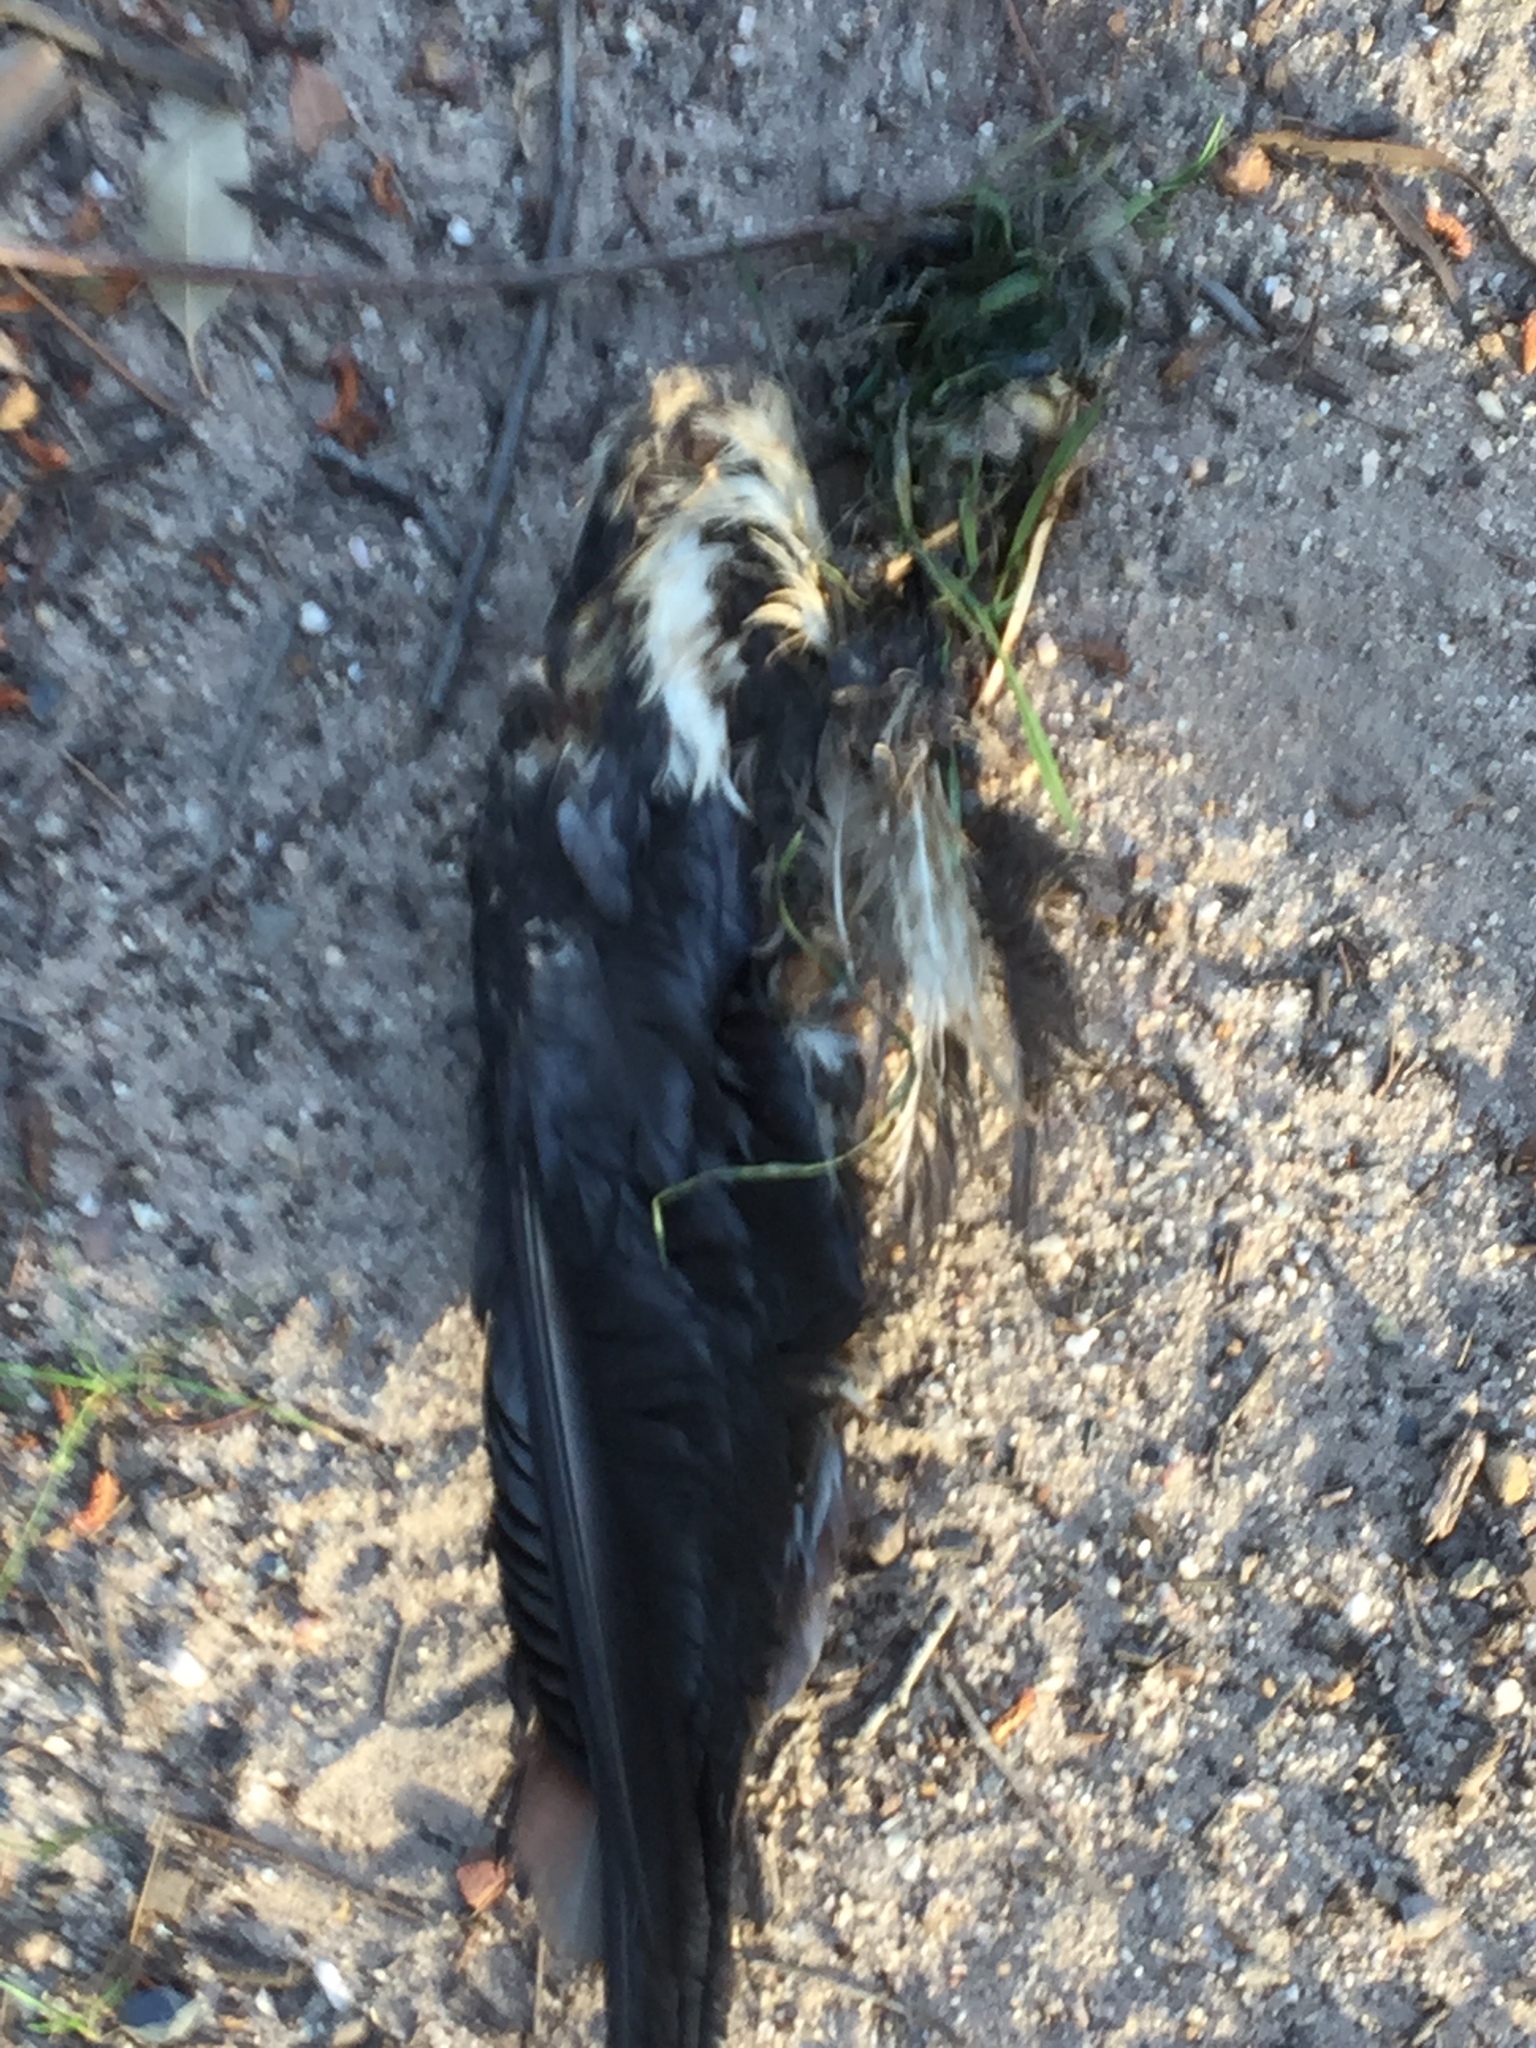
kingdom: Animalia
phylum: Chordata
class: Aves
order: Anseriformes
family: Anatidae
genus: Alopochen
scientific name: Alopochen aegyptiaca
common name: Egyptian goose
